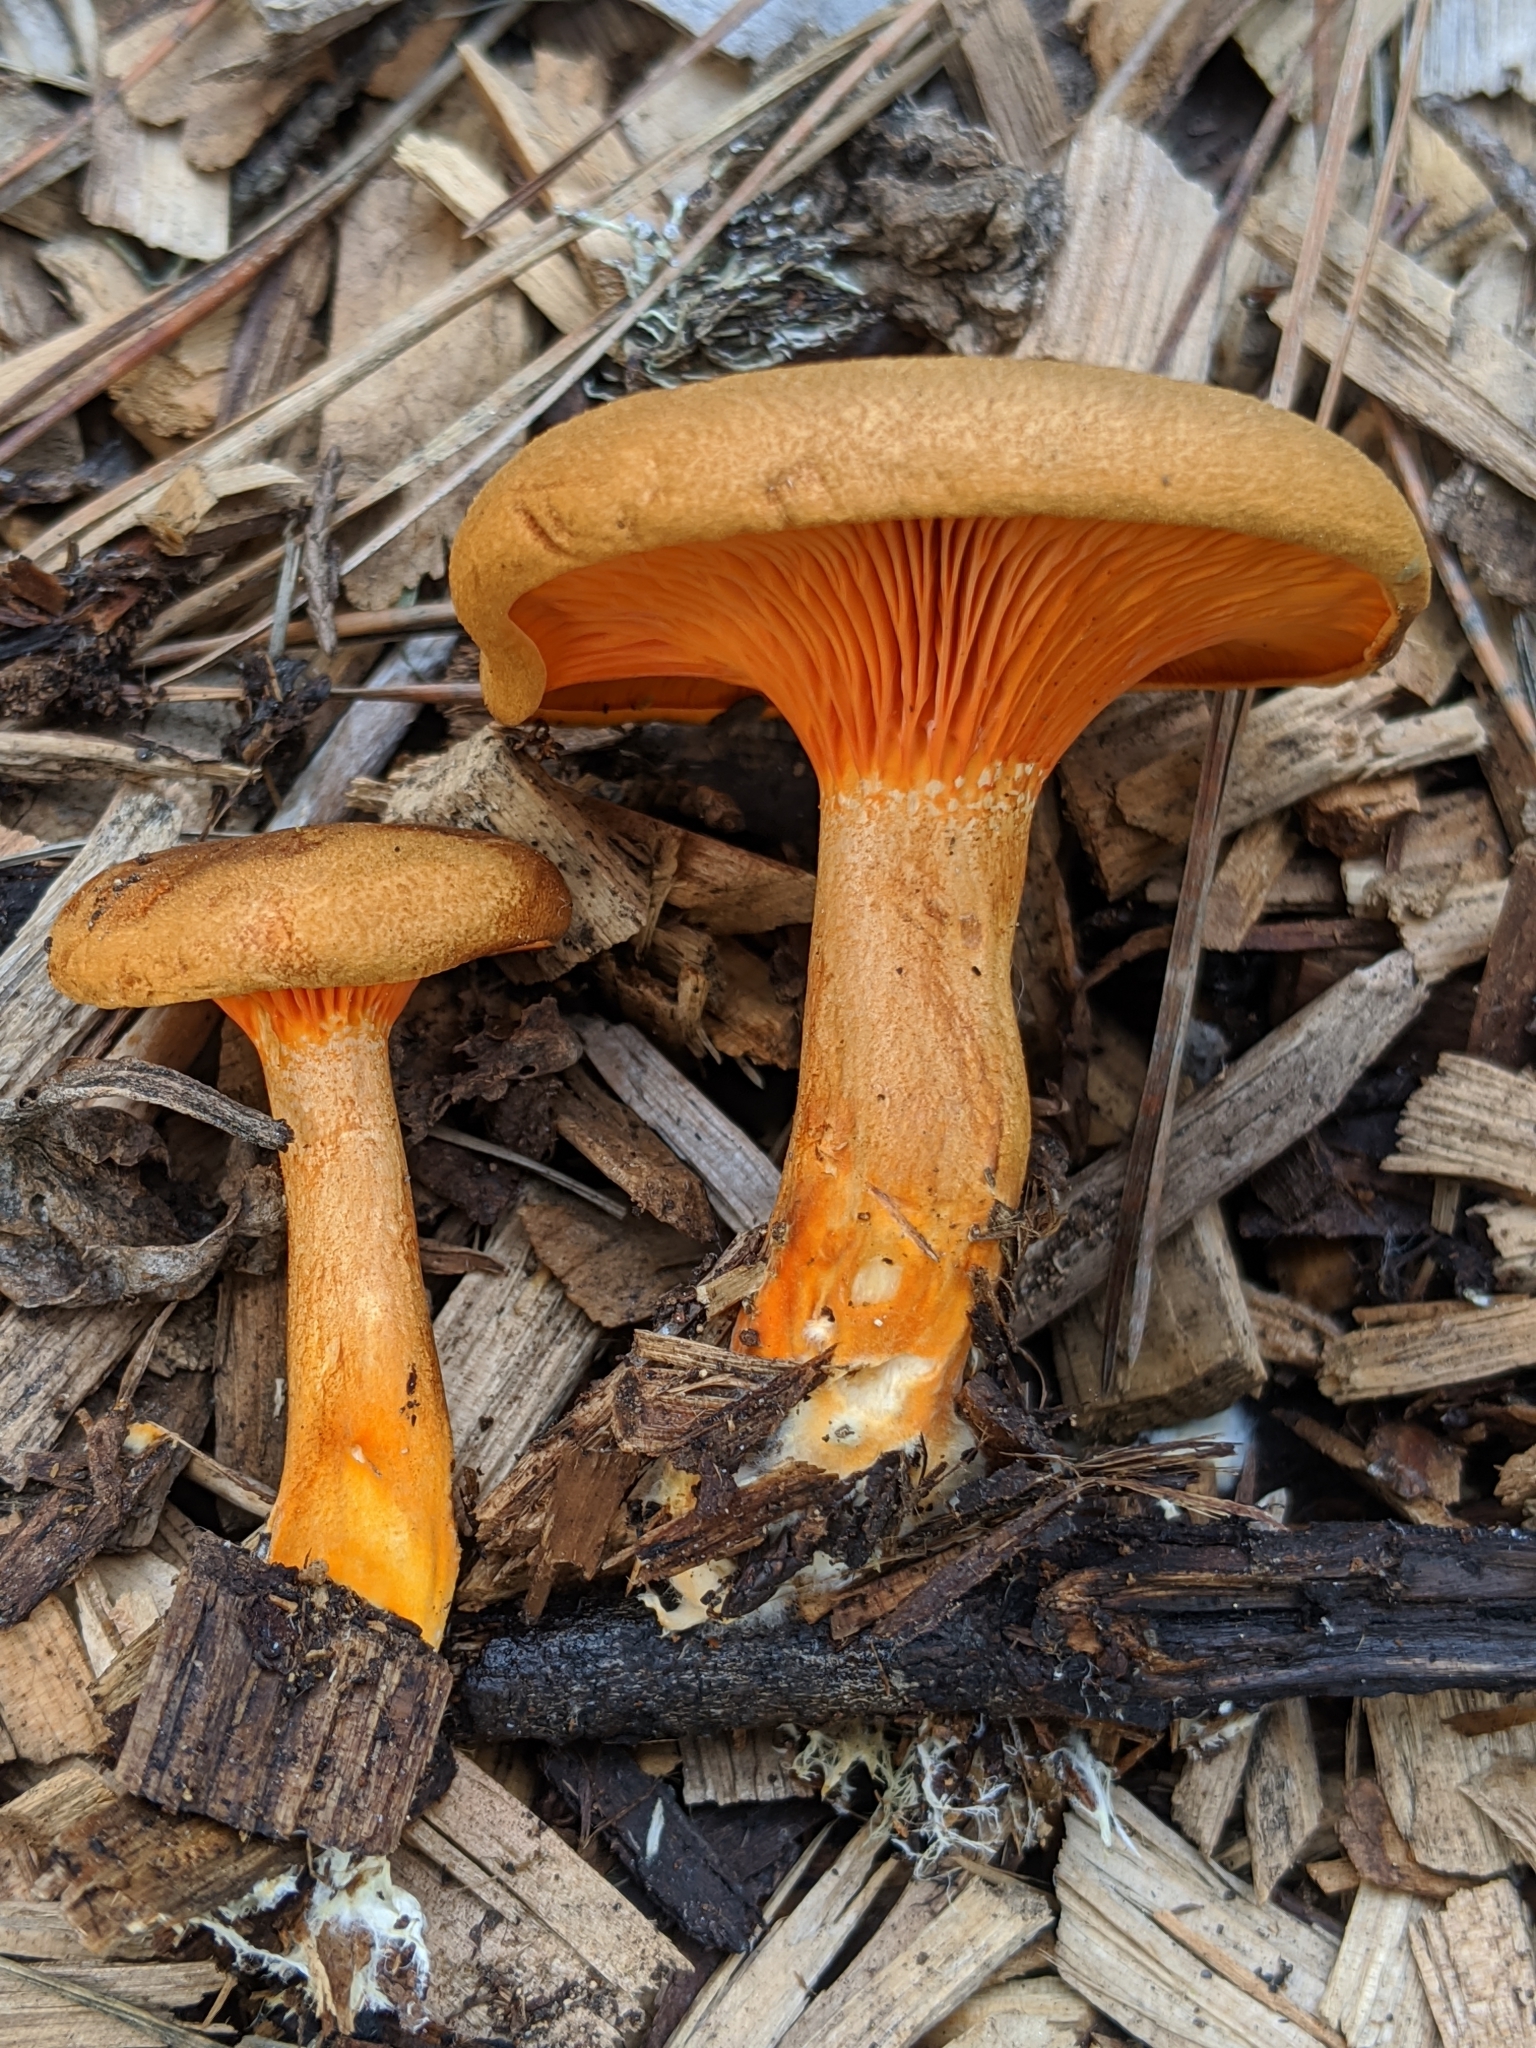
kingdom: Fungi
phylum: Basidiomycota
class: Agaricomycetes
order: Boletales
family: Hygrophoropsidaceae
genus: Hygrophoropsis
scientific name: Hygrophoropsis aurantiaca
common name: False chanterelle
